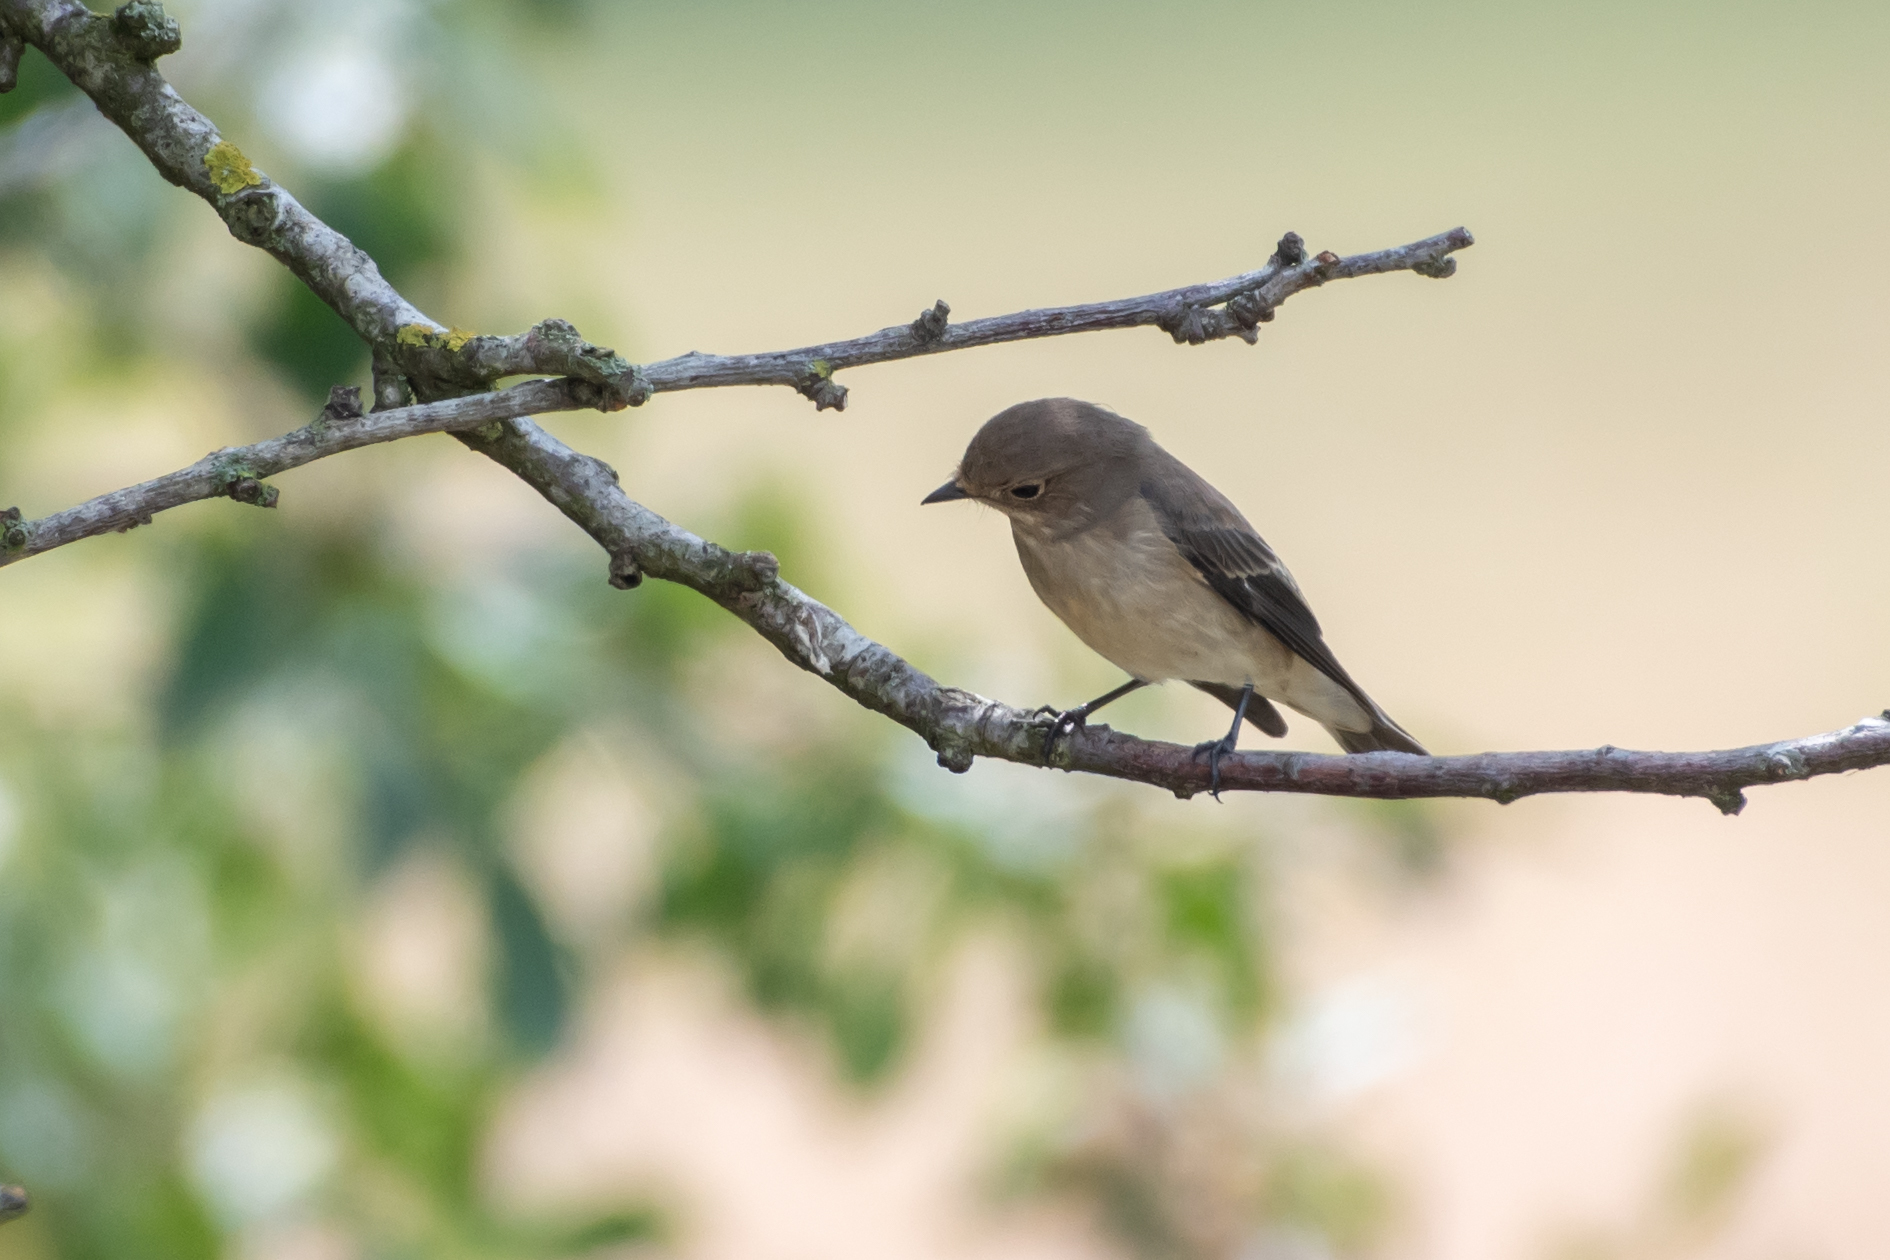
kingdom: Animalia
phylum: Chordata
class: Aves
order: Passeriformes
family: Muscicapidae
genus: Ficedula
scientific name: Ficedula hypoleuca
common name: European pied flycatcher
